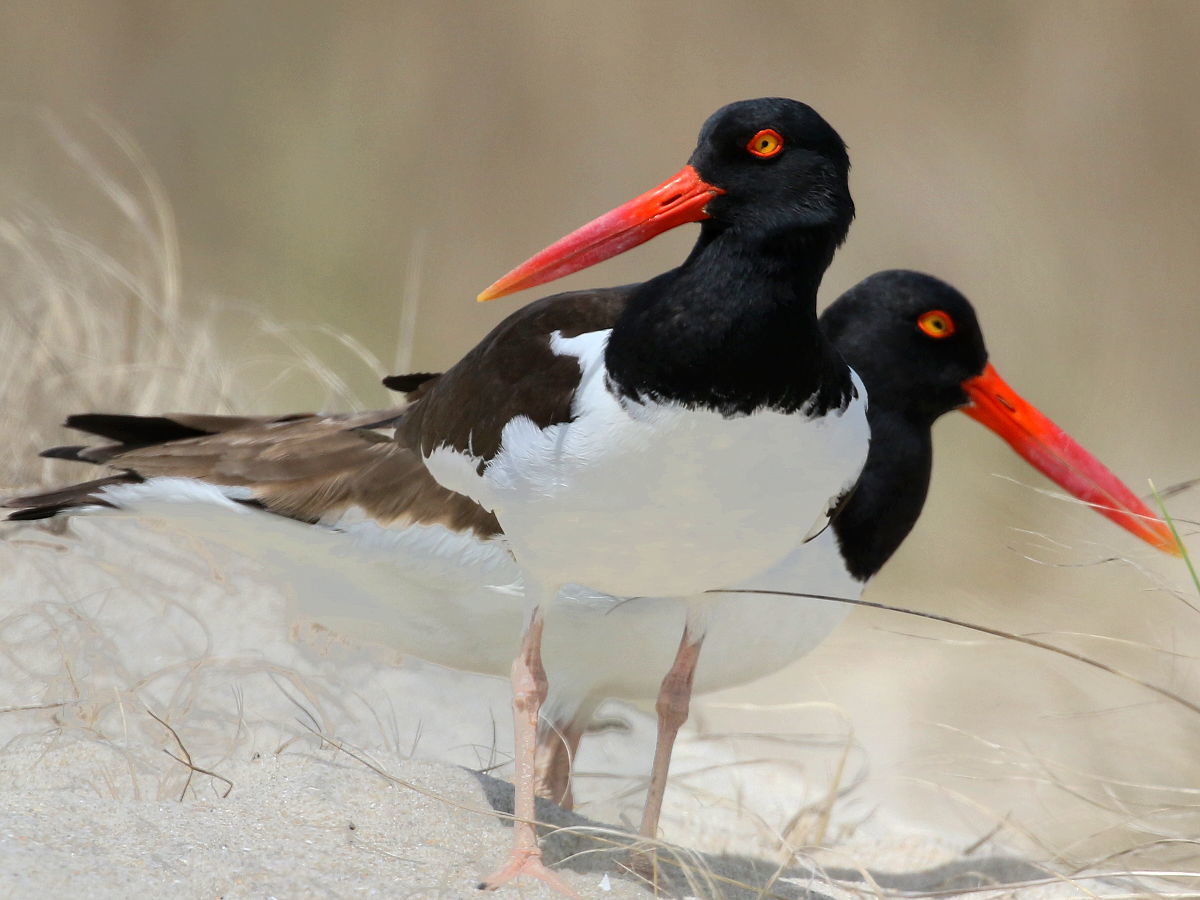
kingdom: Animalia
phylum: Chordata
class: Aves
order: Charadriiformes
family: Haematopodidae
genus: Haematopus
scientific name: Haematopus palliatus
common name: American oystercatcher
